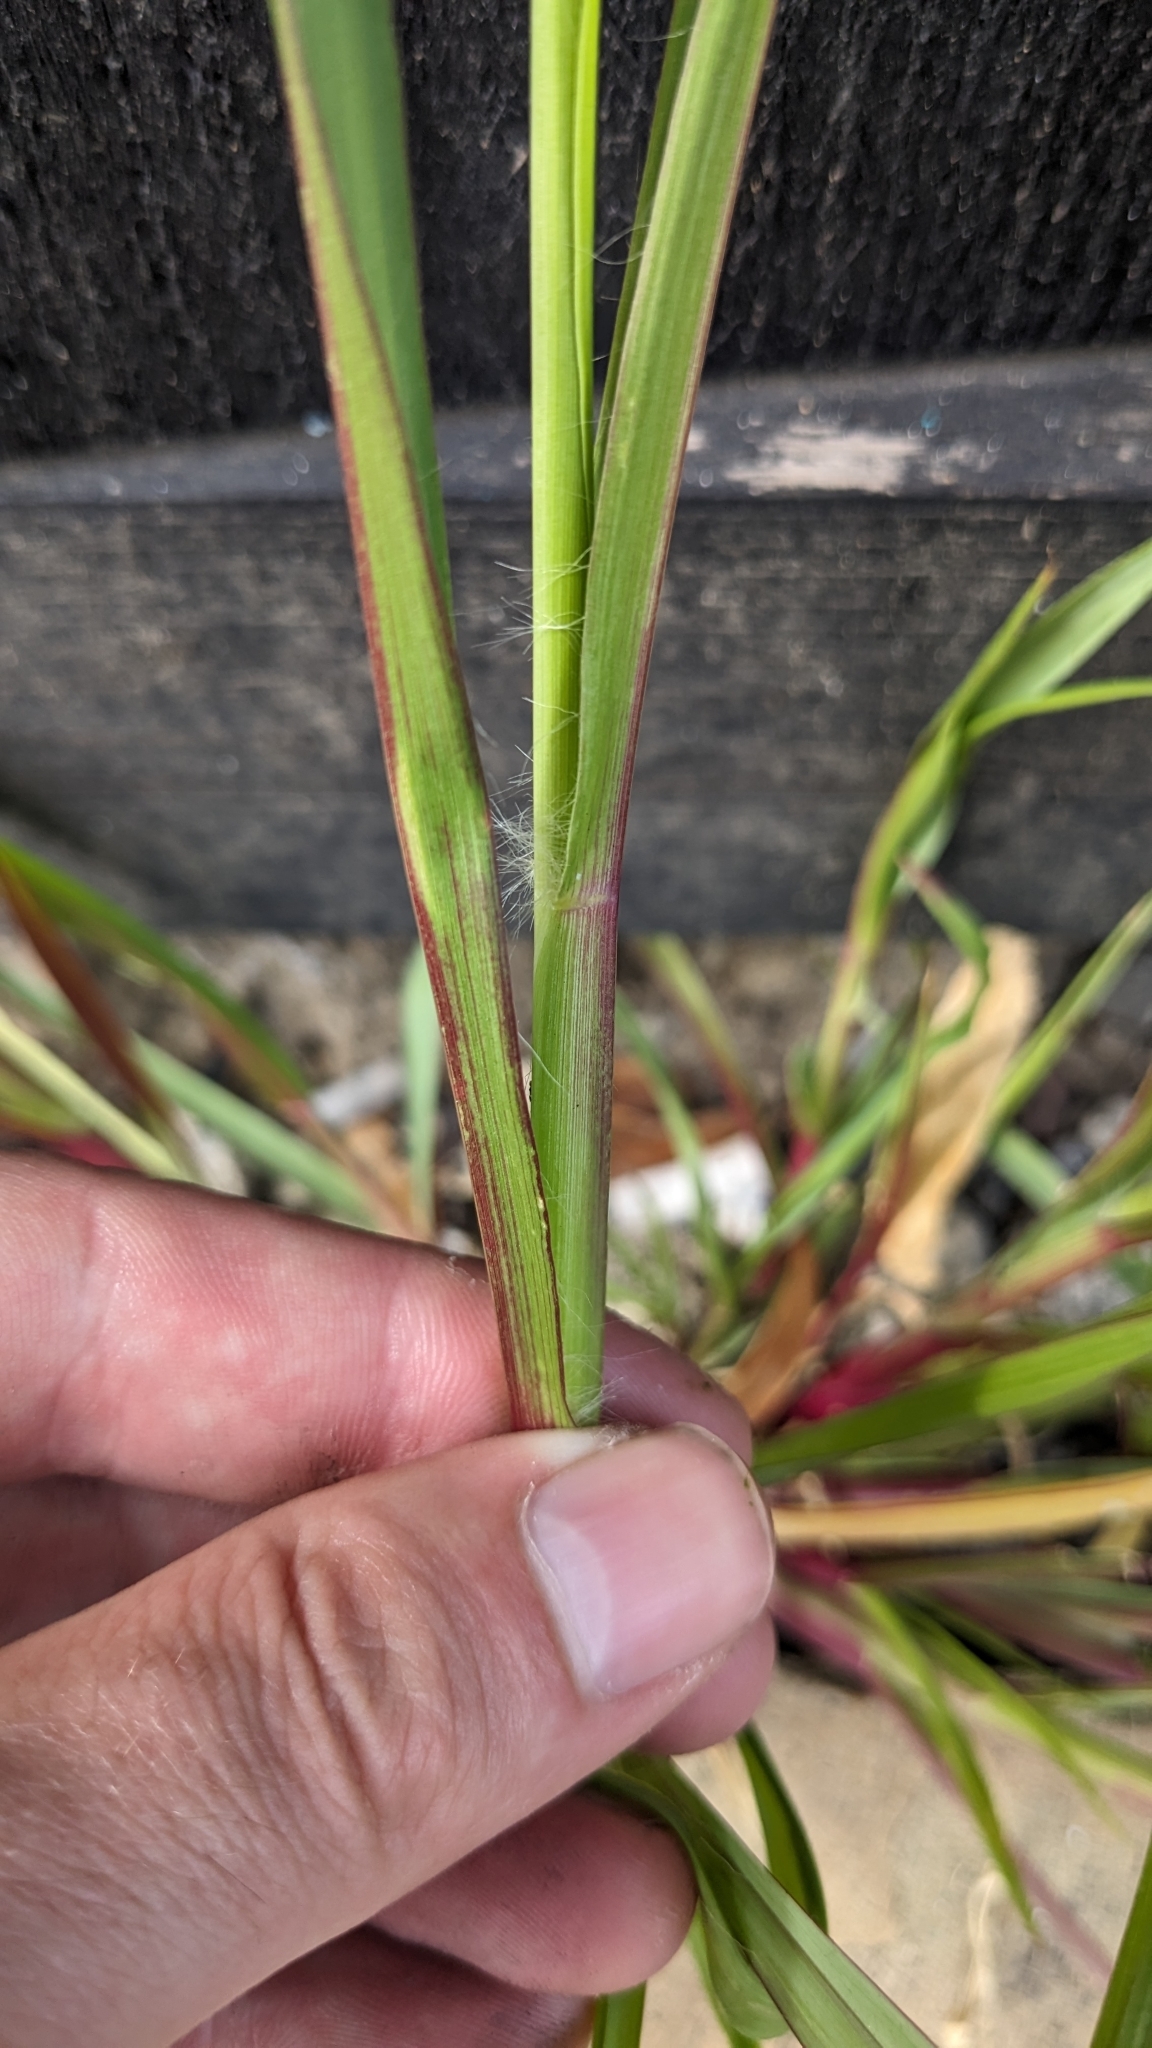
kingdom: Plantae
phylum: Tracheophyta
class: Liliopsida
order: Poales
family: Poaceae
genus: Setaria
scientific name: Setaria pumila
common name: Yellow bristle-grass
